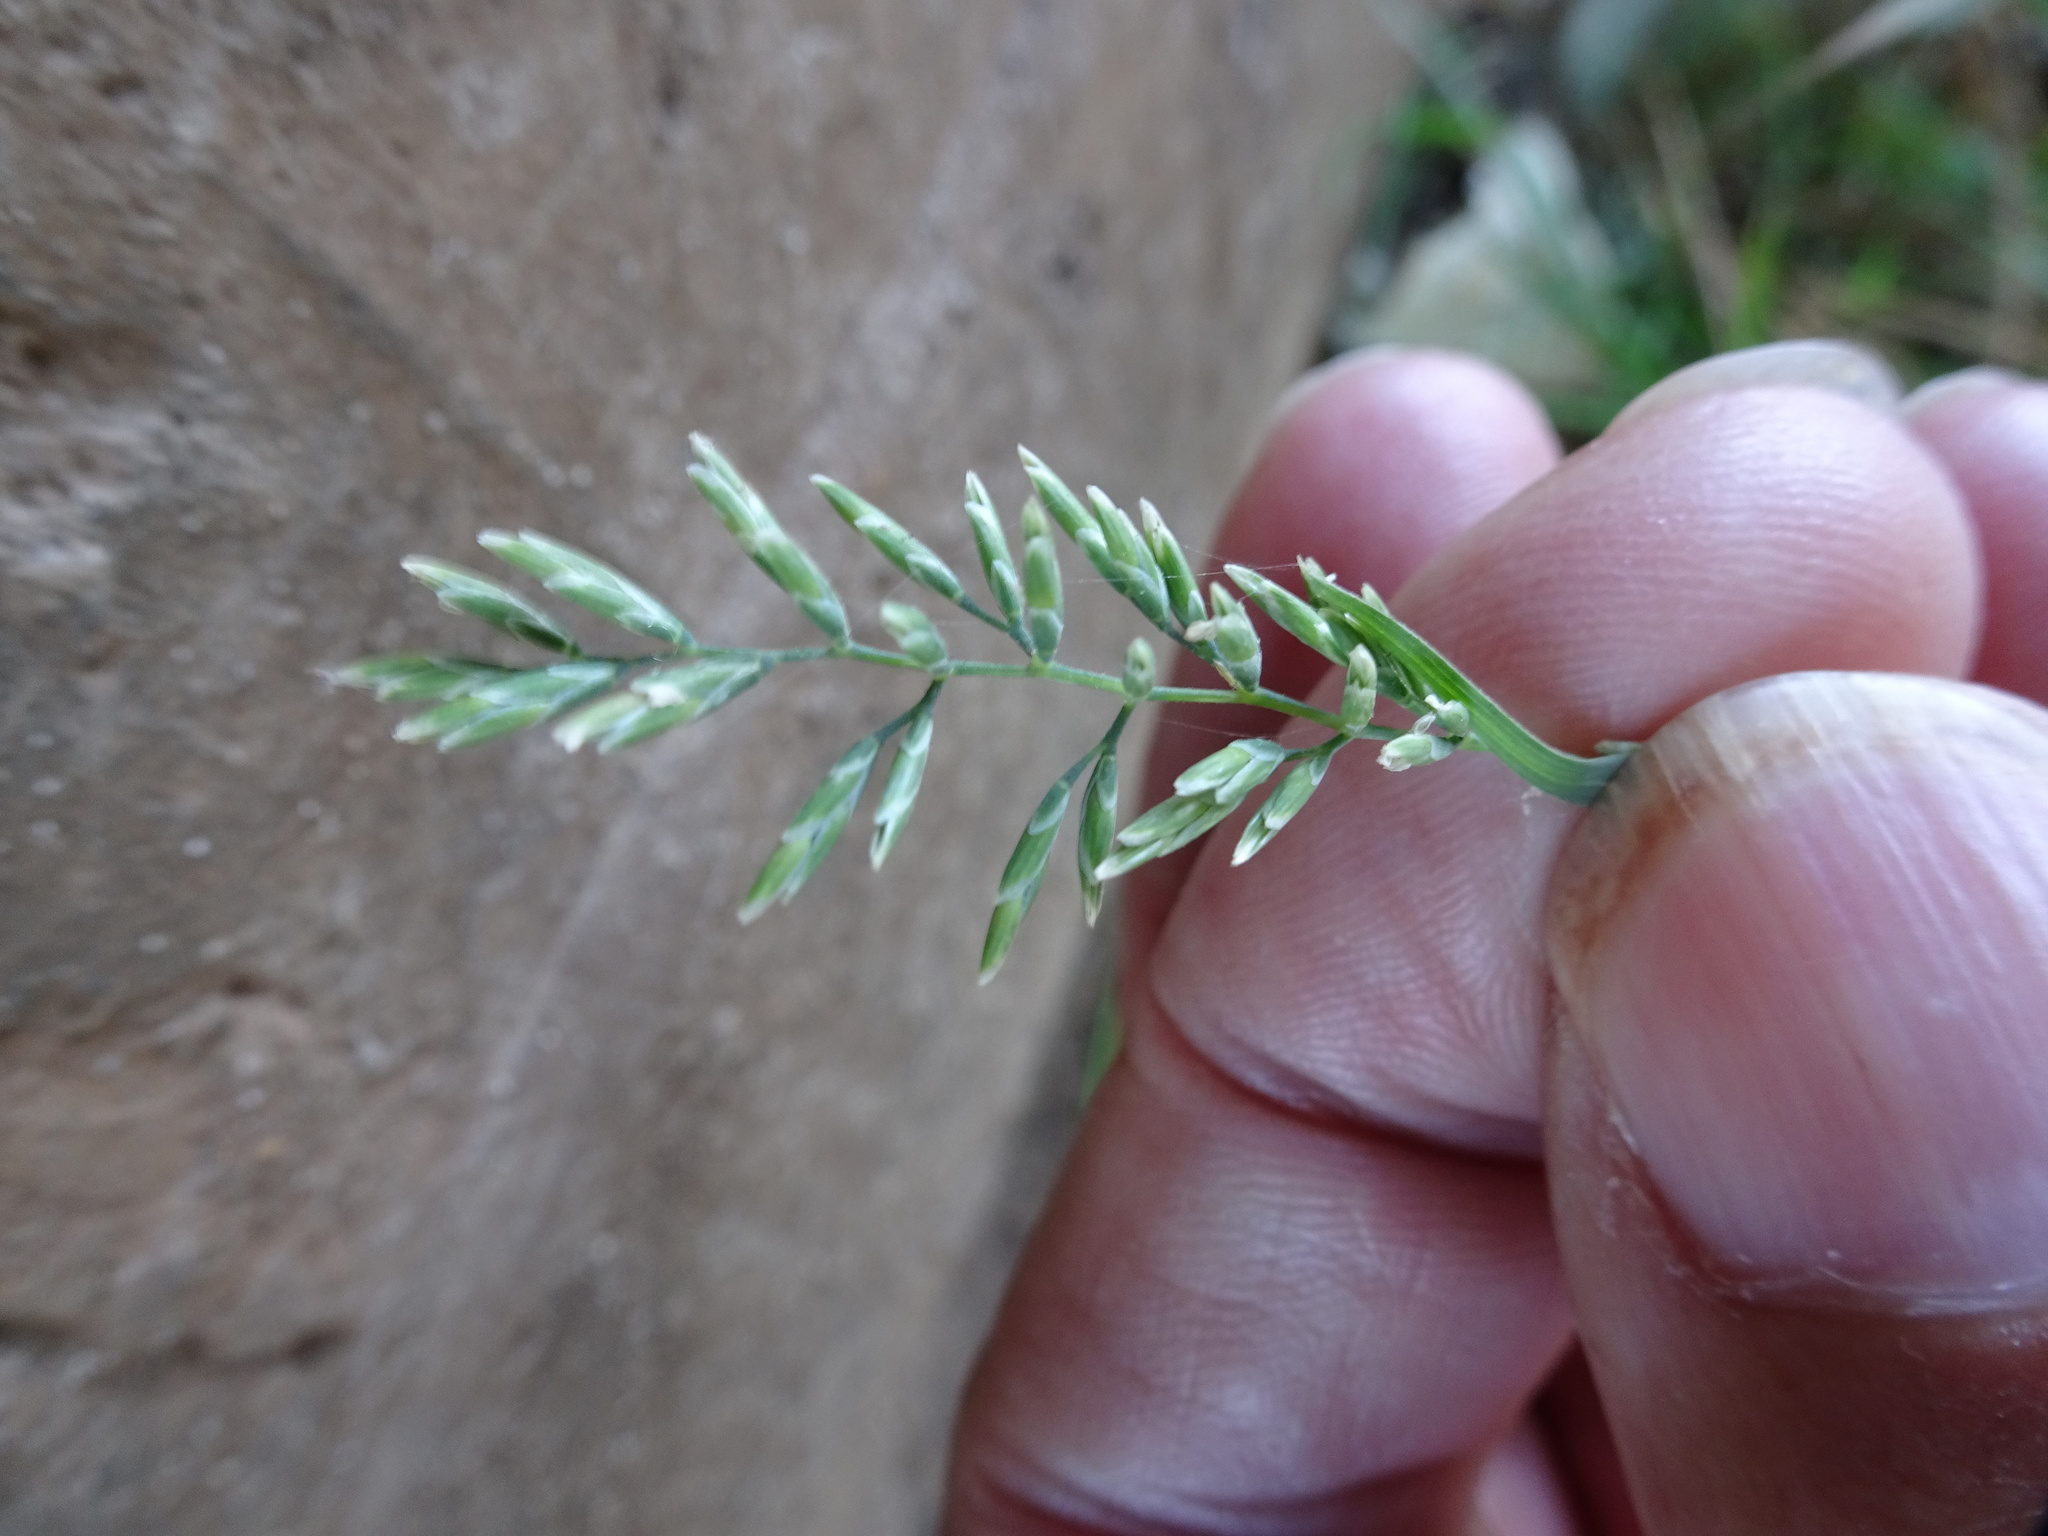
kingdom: Plantae
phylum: Tracheophyta
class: Liliopsida
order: Poales
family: Poaceae
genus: Puccinellia
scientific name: Puccinellia fasciculata
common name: Borrer's saltmarsh-grass
